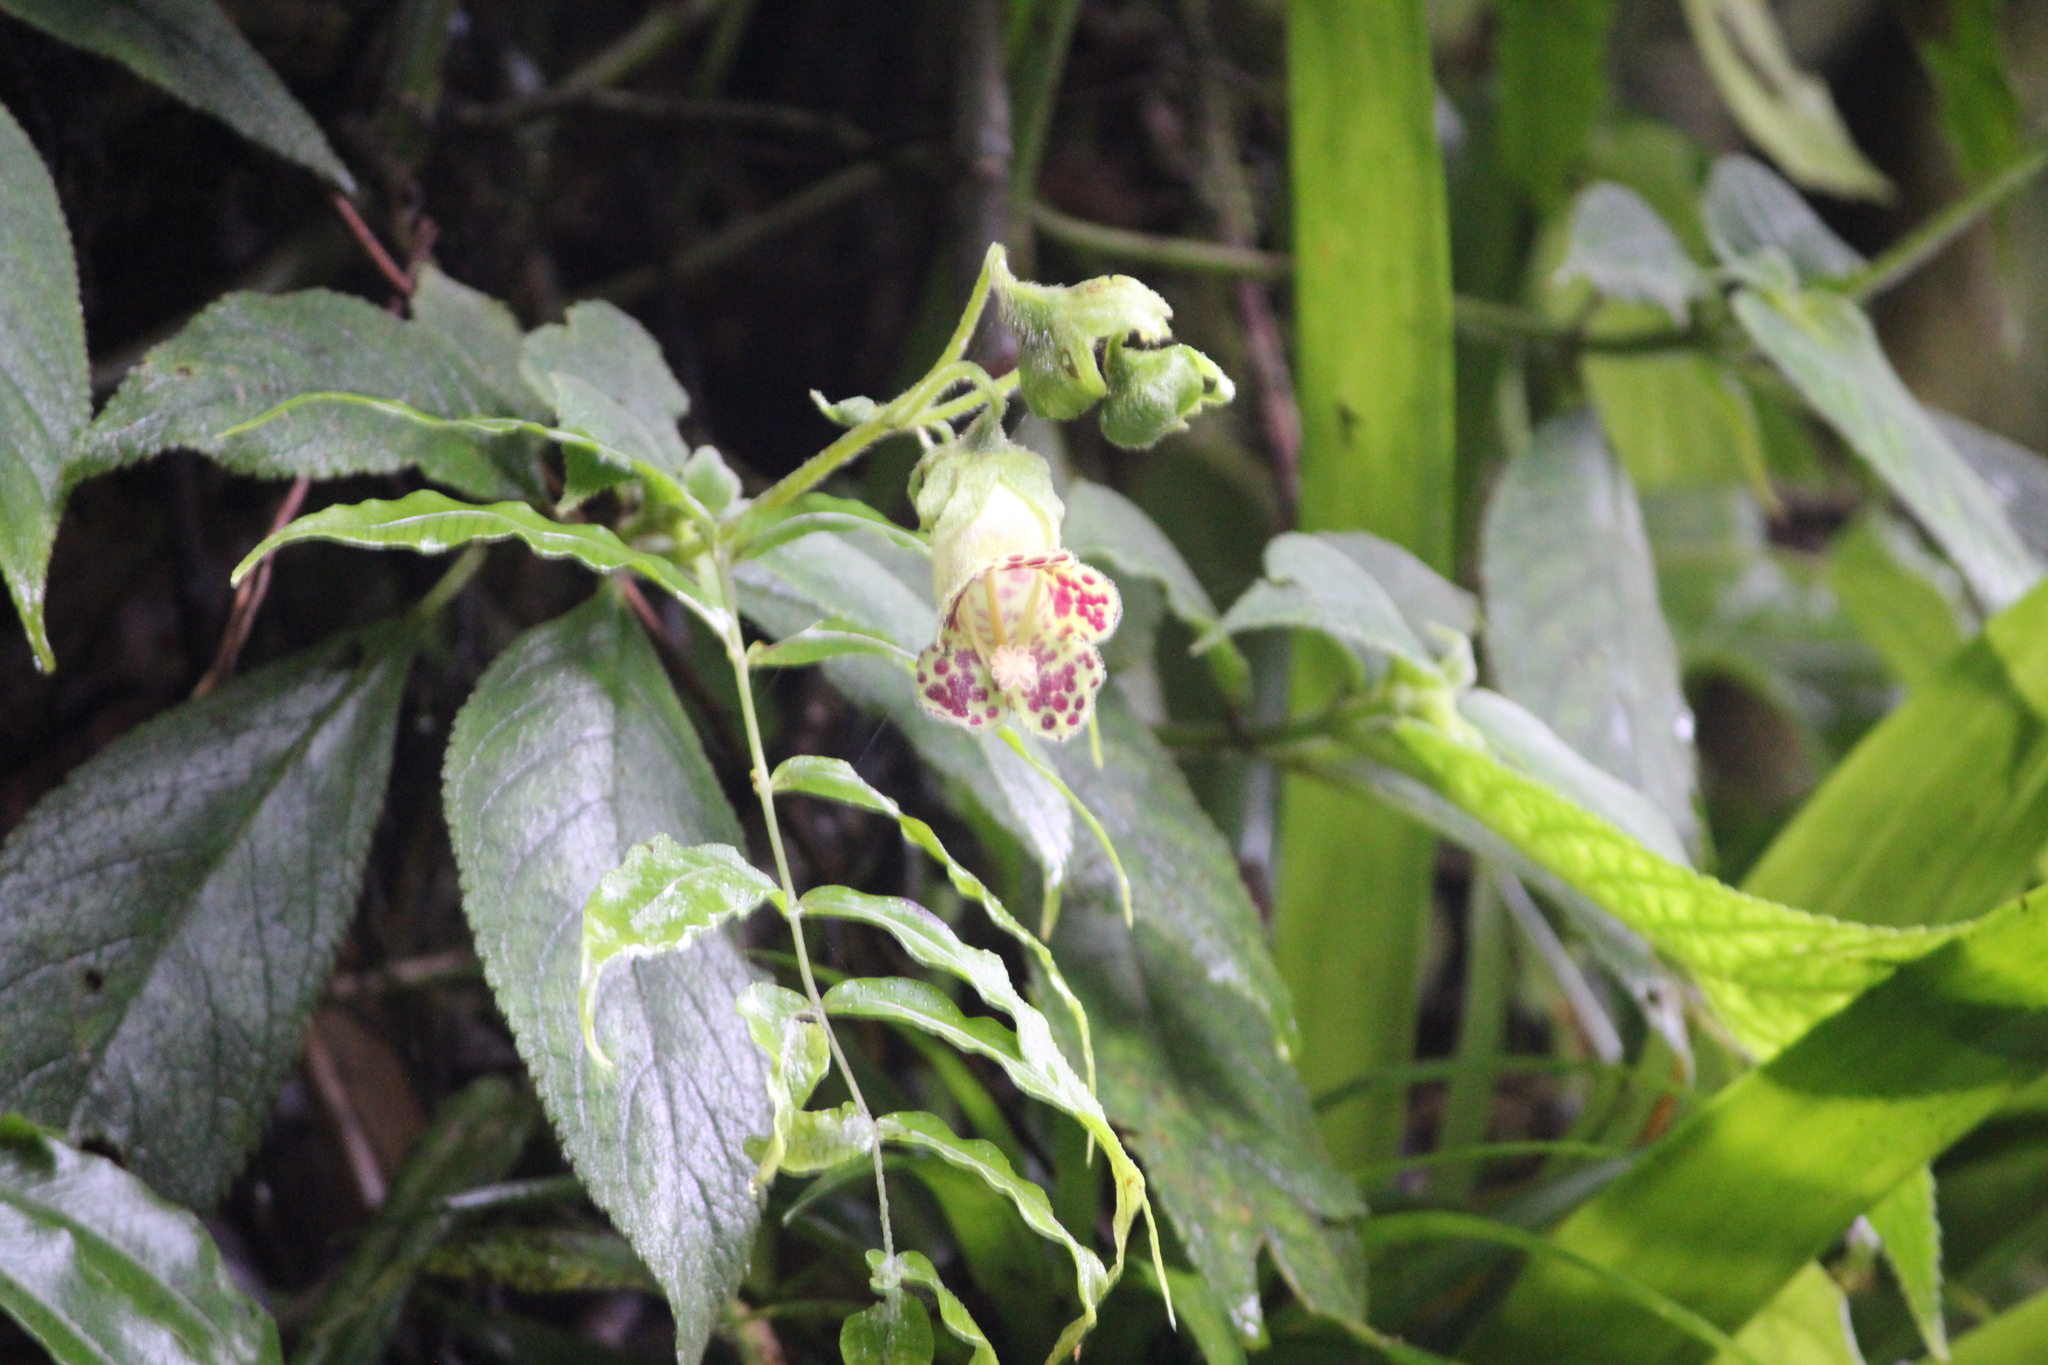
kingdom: Plantae
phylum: Tracheophyta
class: Magnoliopsida
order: Lamiales
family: Gesneriaceae
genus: Kohleria
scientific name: Kohleria tigridia
